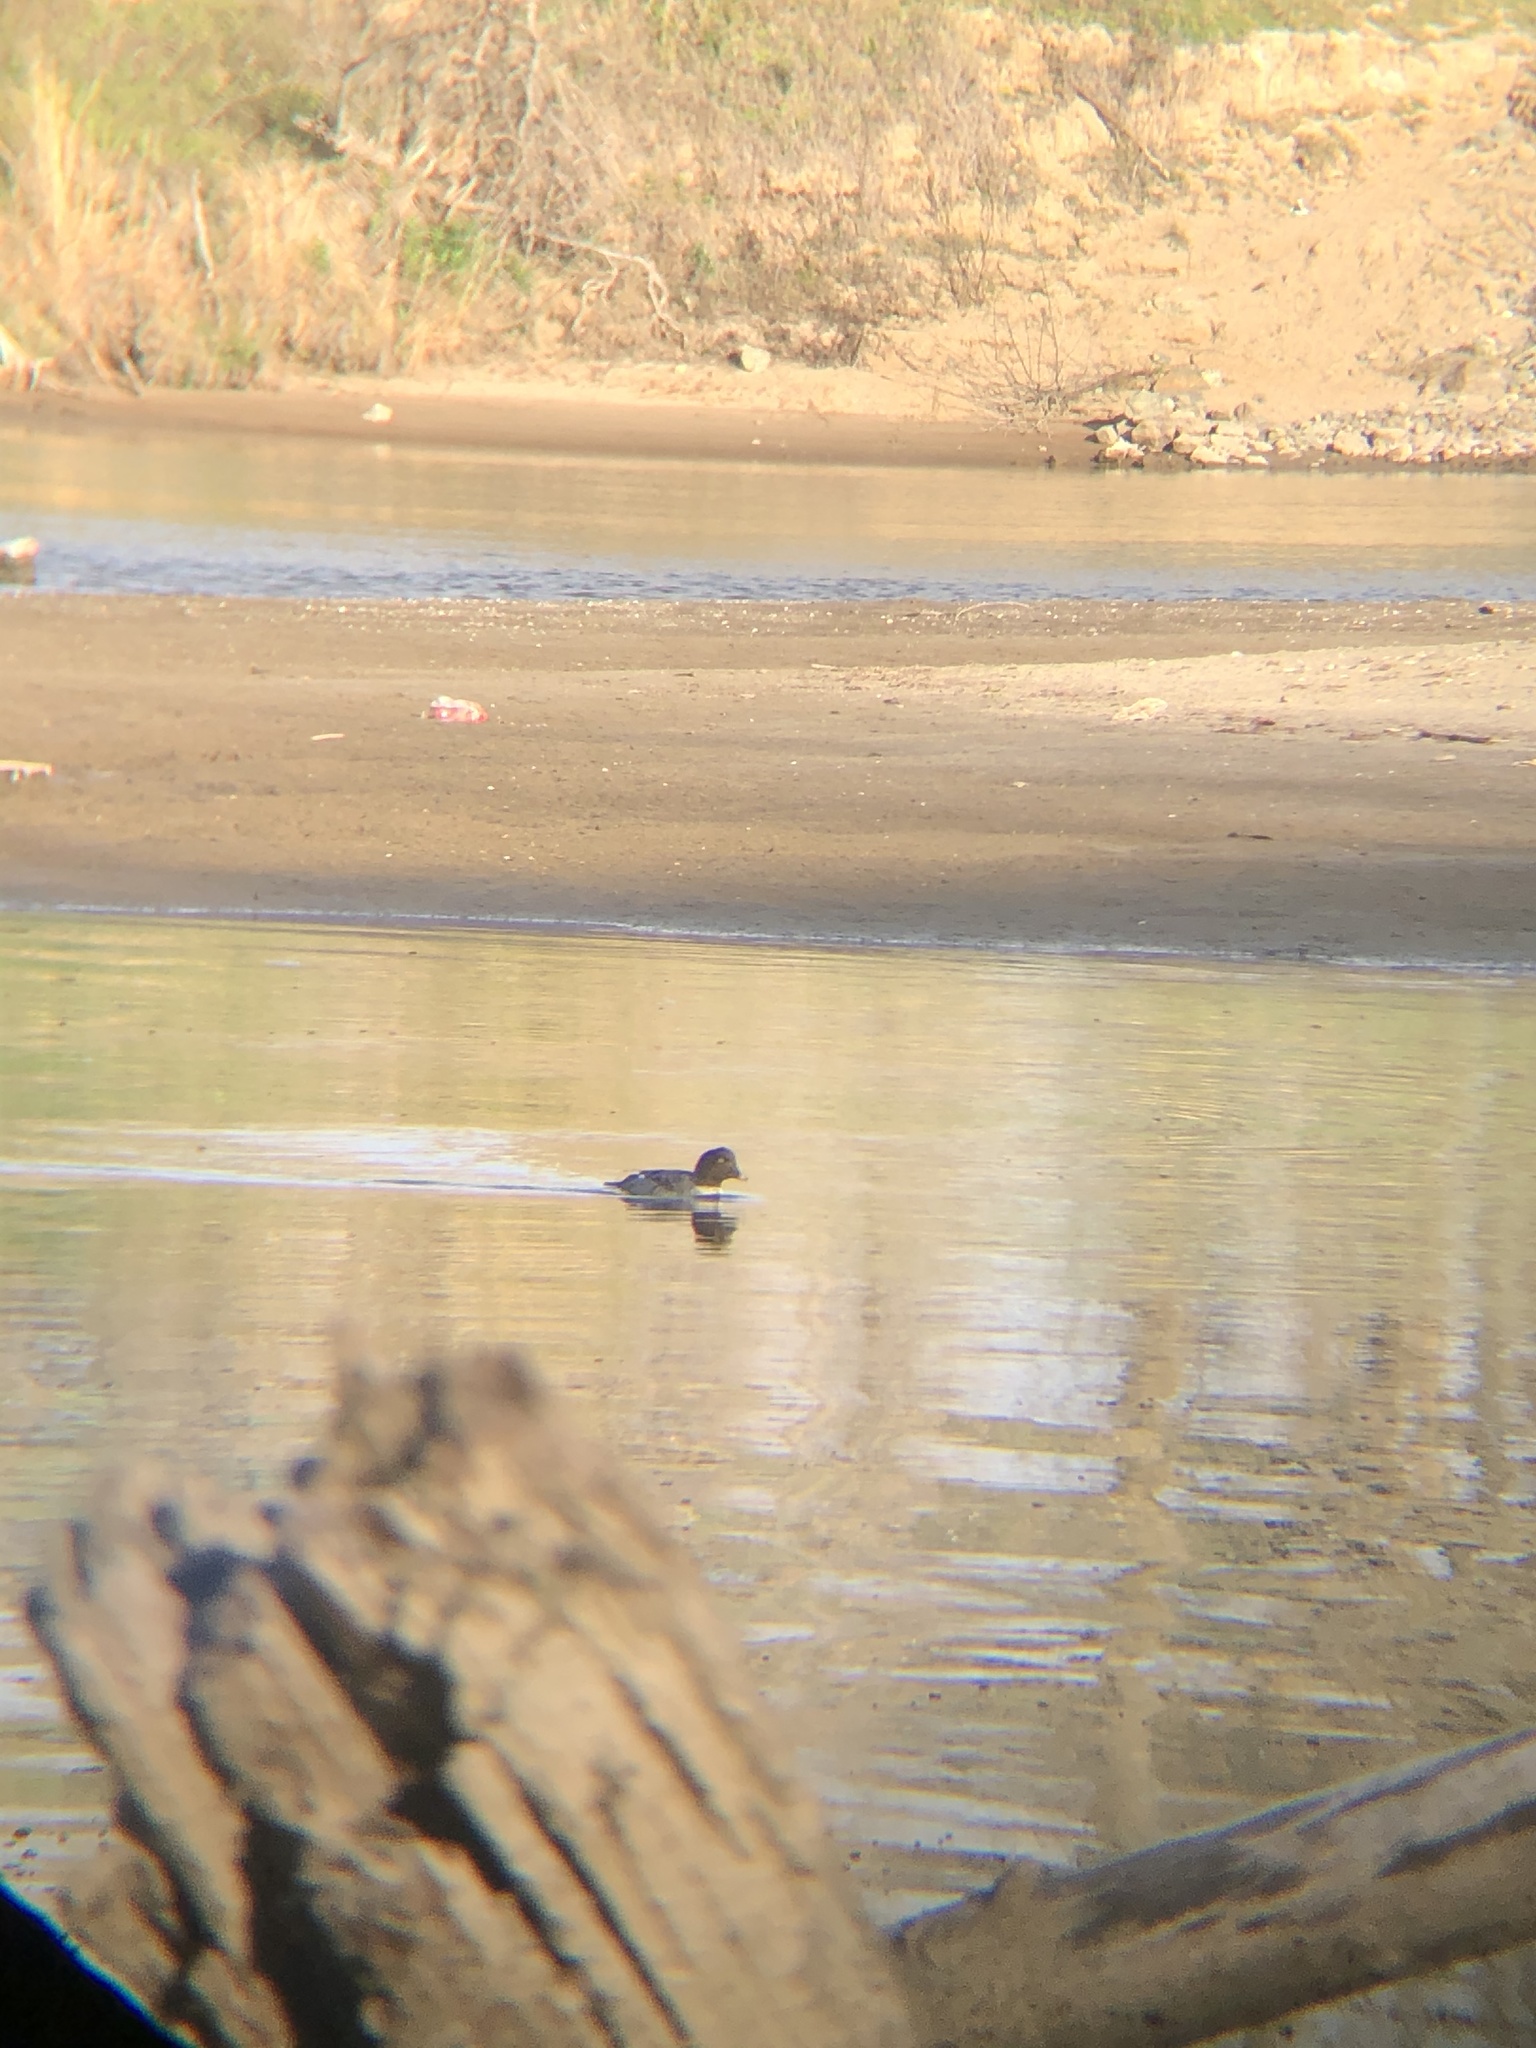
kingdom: Animalia
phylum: Chordata
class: Aves
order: Anseriformes
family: Anatidae
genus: Bucephala
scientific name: Bucephala clangula
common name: Common goldeneye
